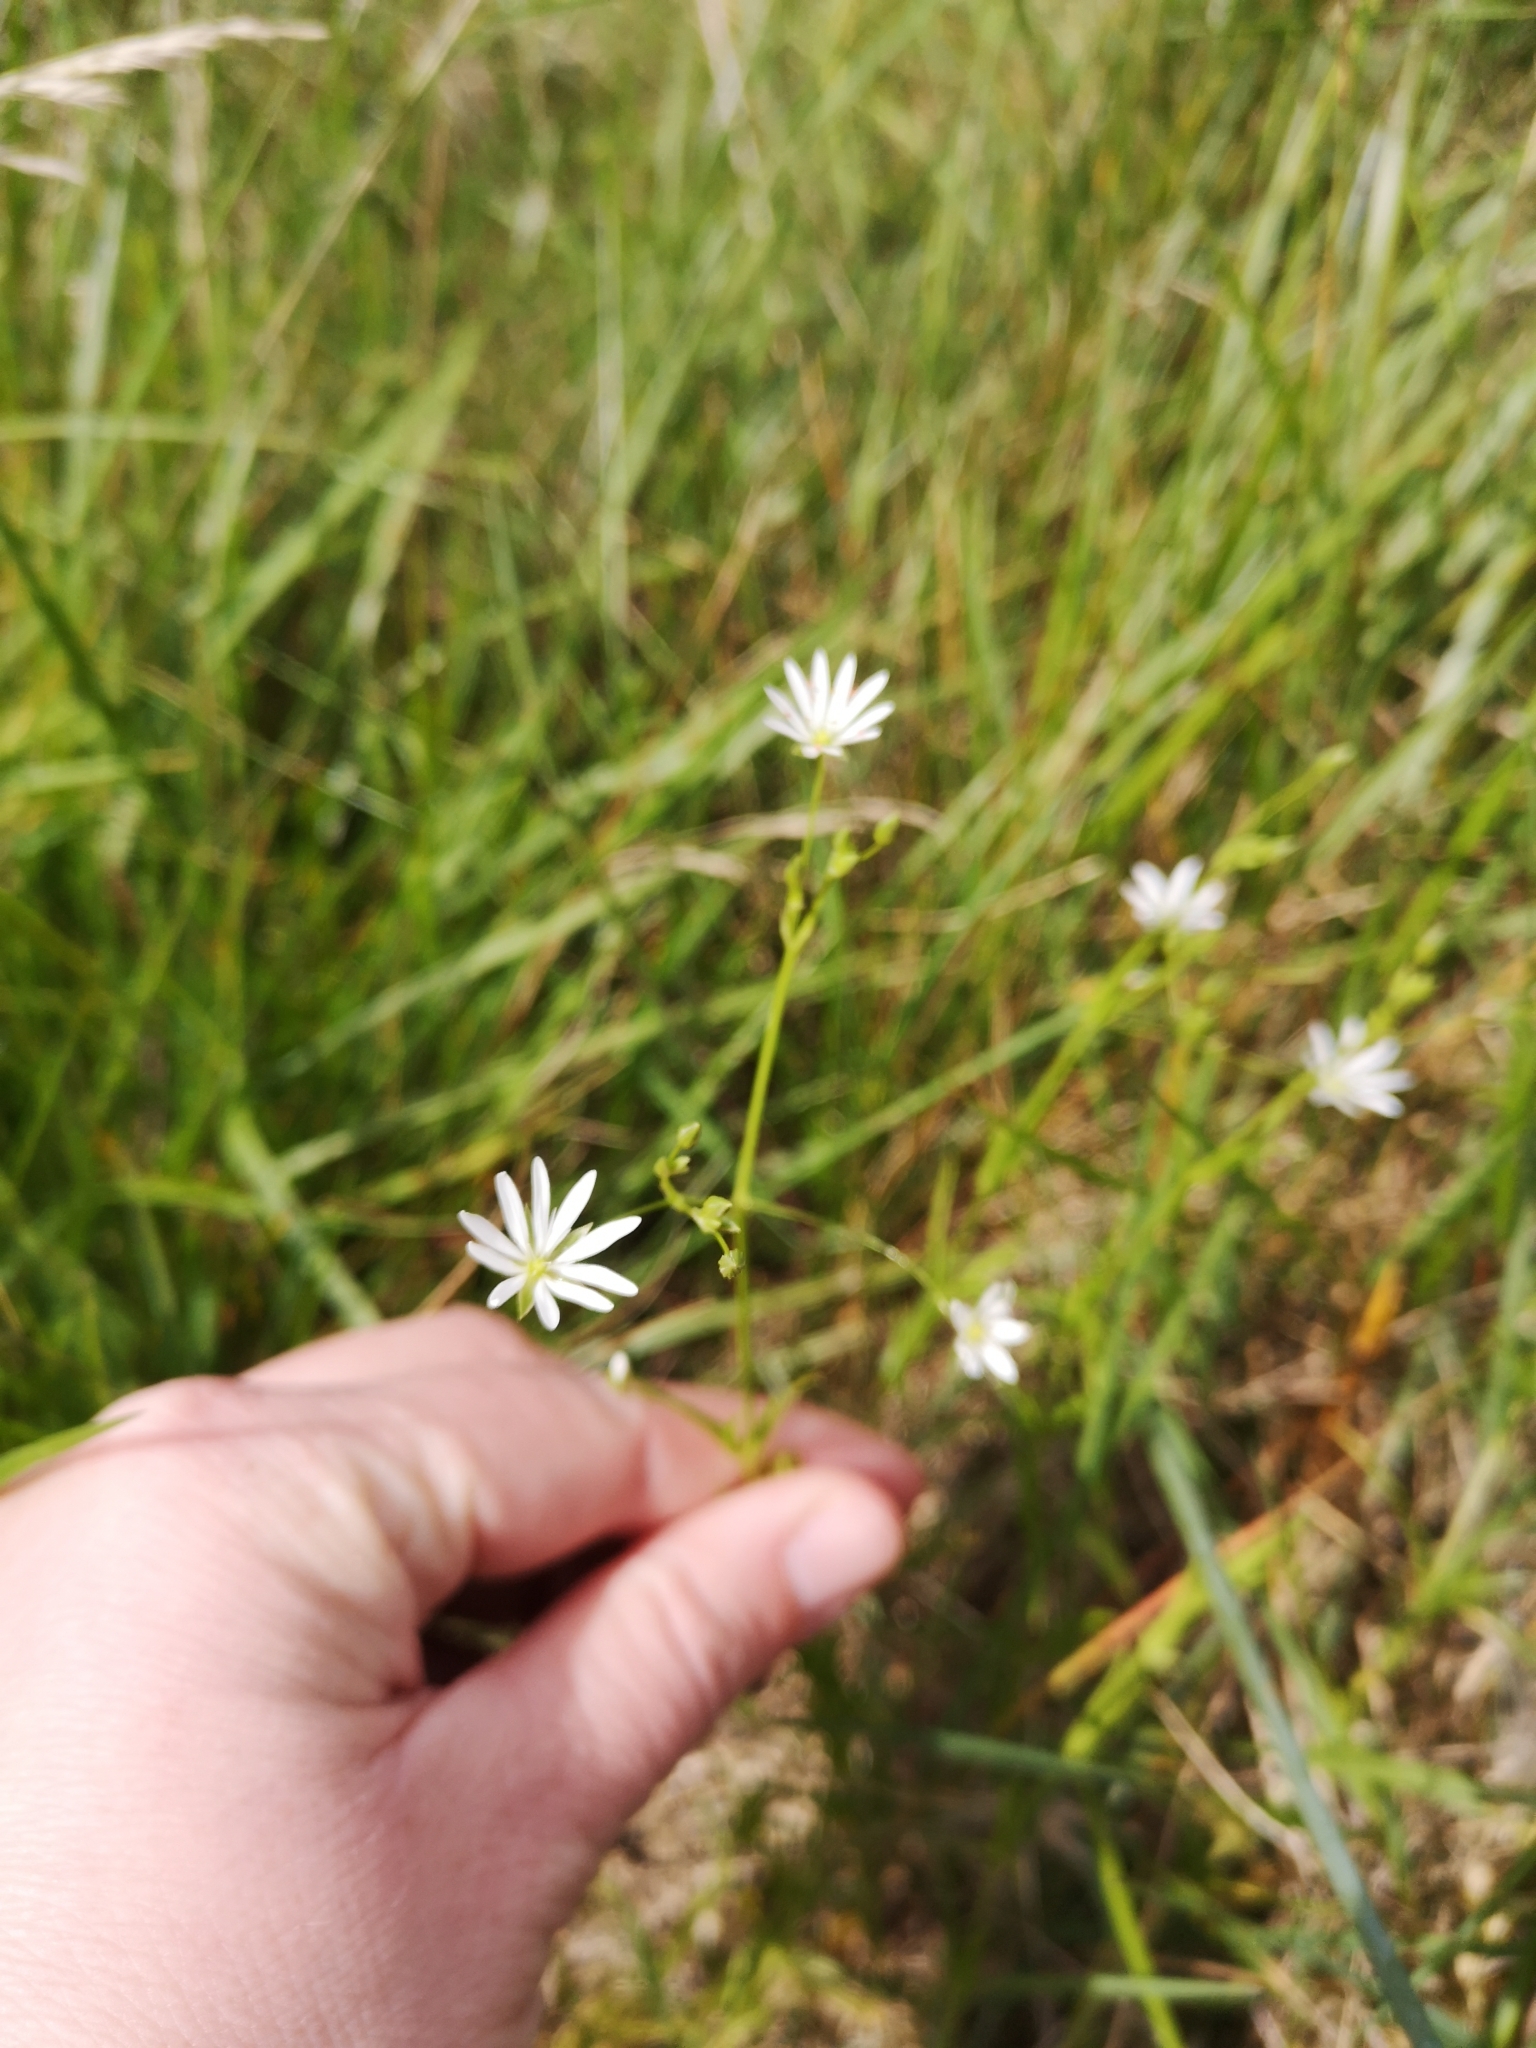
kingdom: Plantae
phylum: Tracheophyta
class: Magnoliopsida
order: Caryophyllales
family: Caryophyllaceae
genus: Stellaria
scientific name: Stellaria graminea
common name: Grass-like starwort
